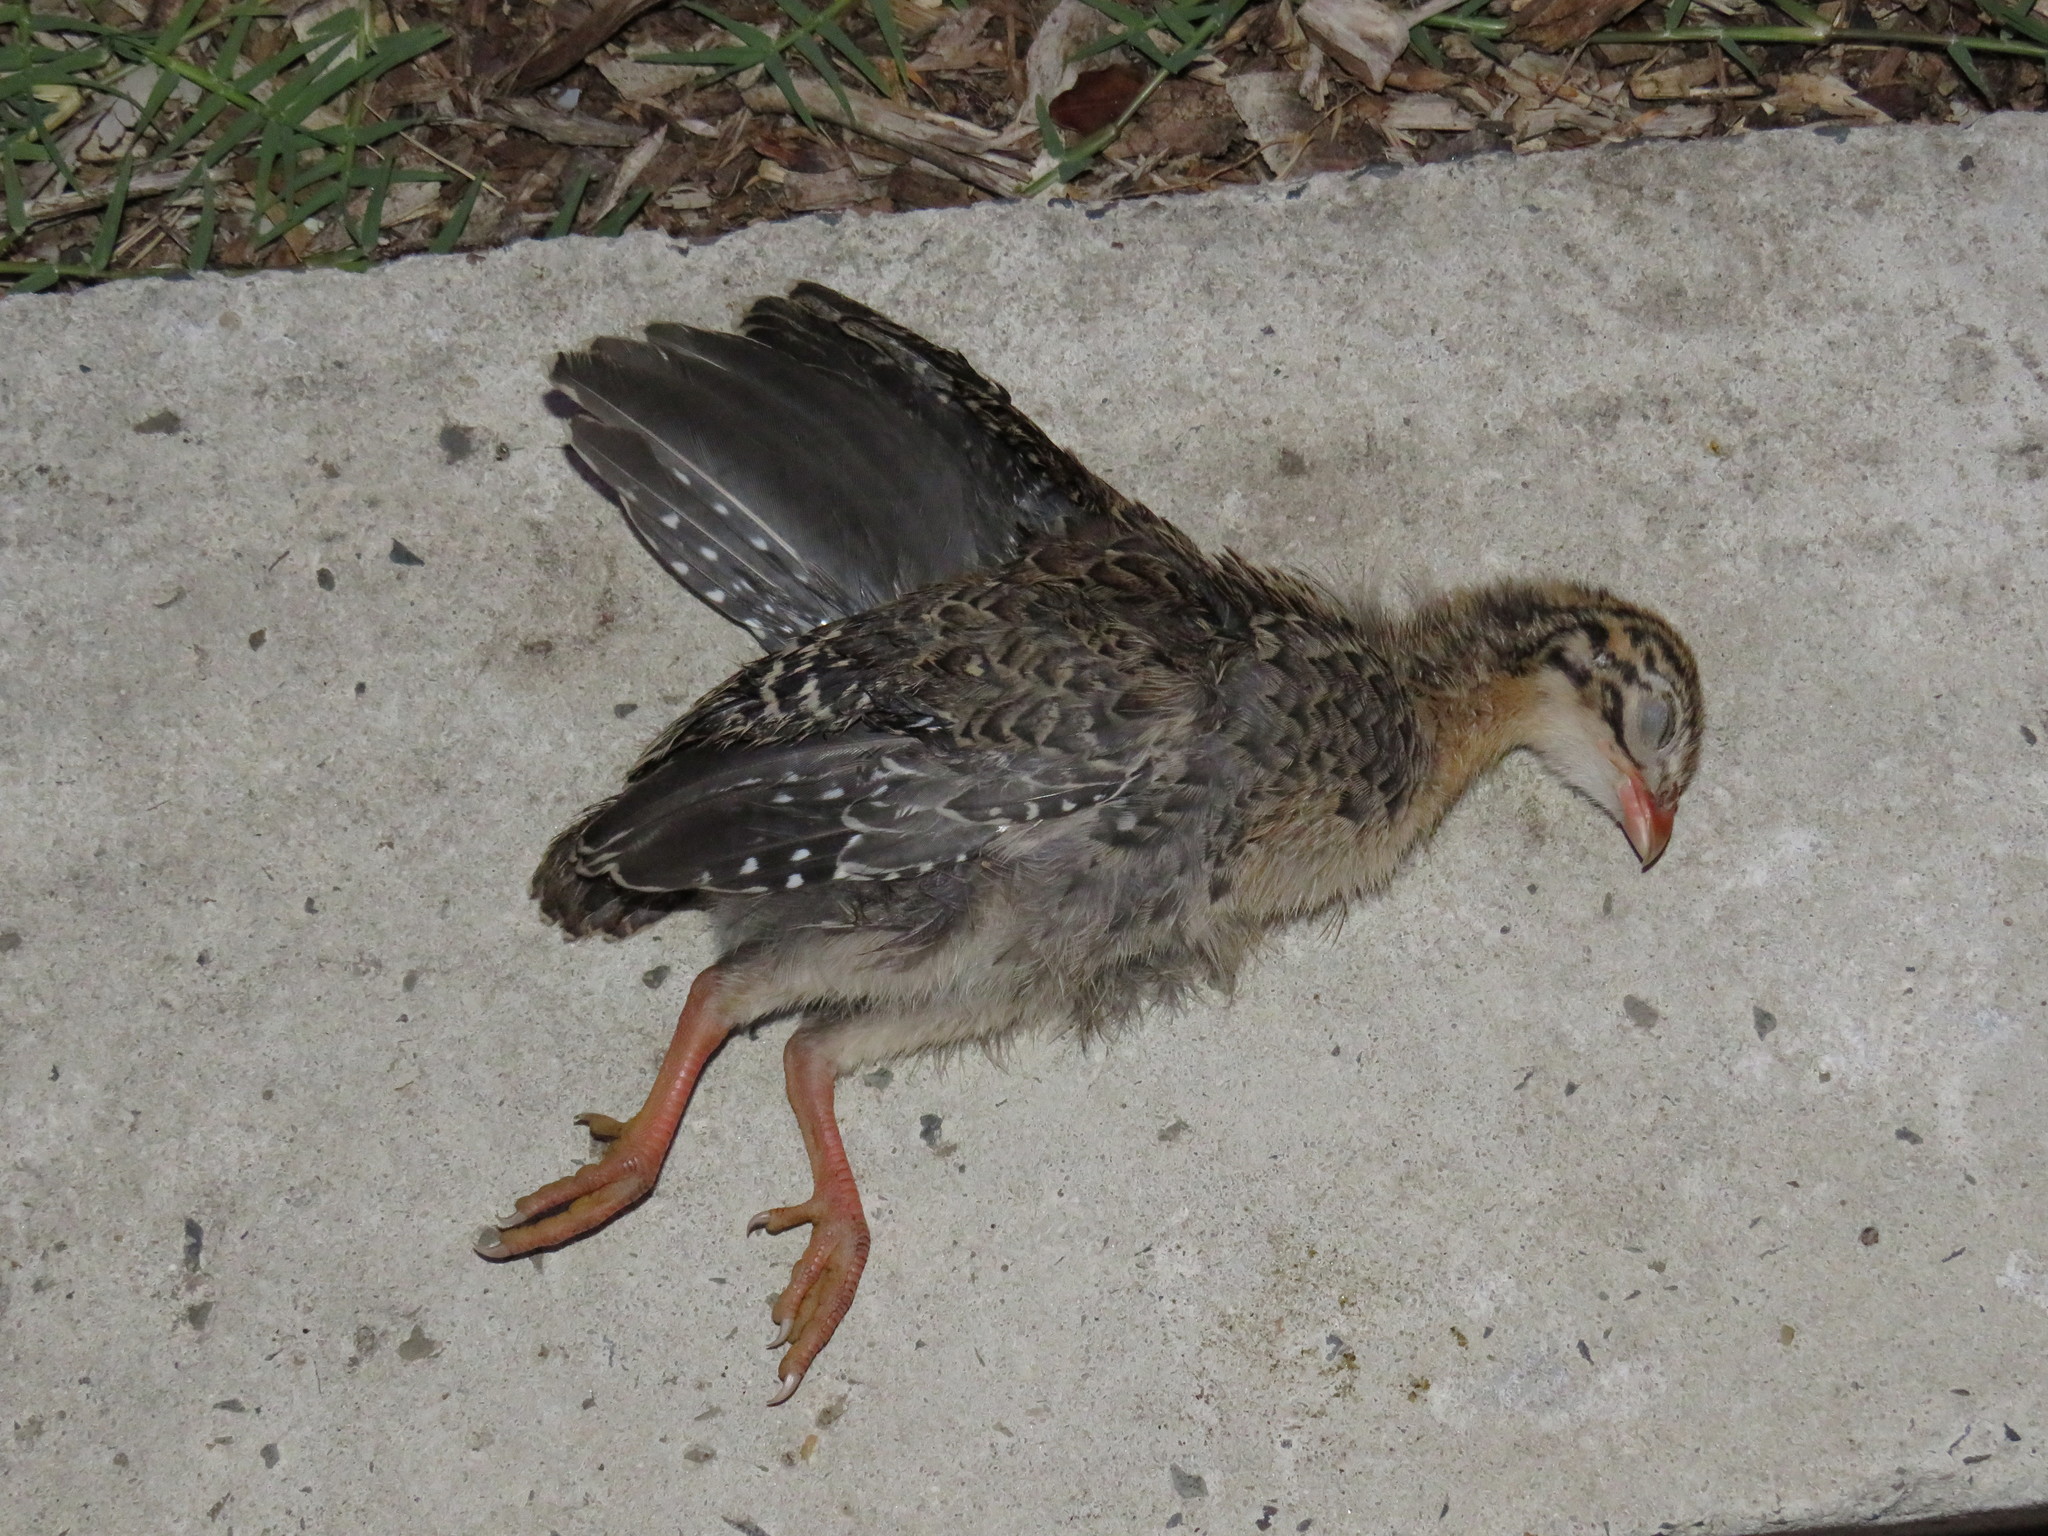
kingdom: Animalia
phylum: Chordata
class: Aves
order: Galliformes
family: Numididae
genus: Numida
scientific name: Numida meleagris
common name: Helmeted guineafowl
